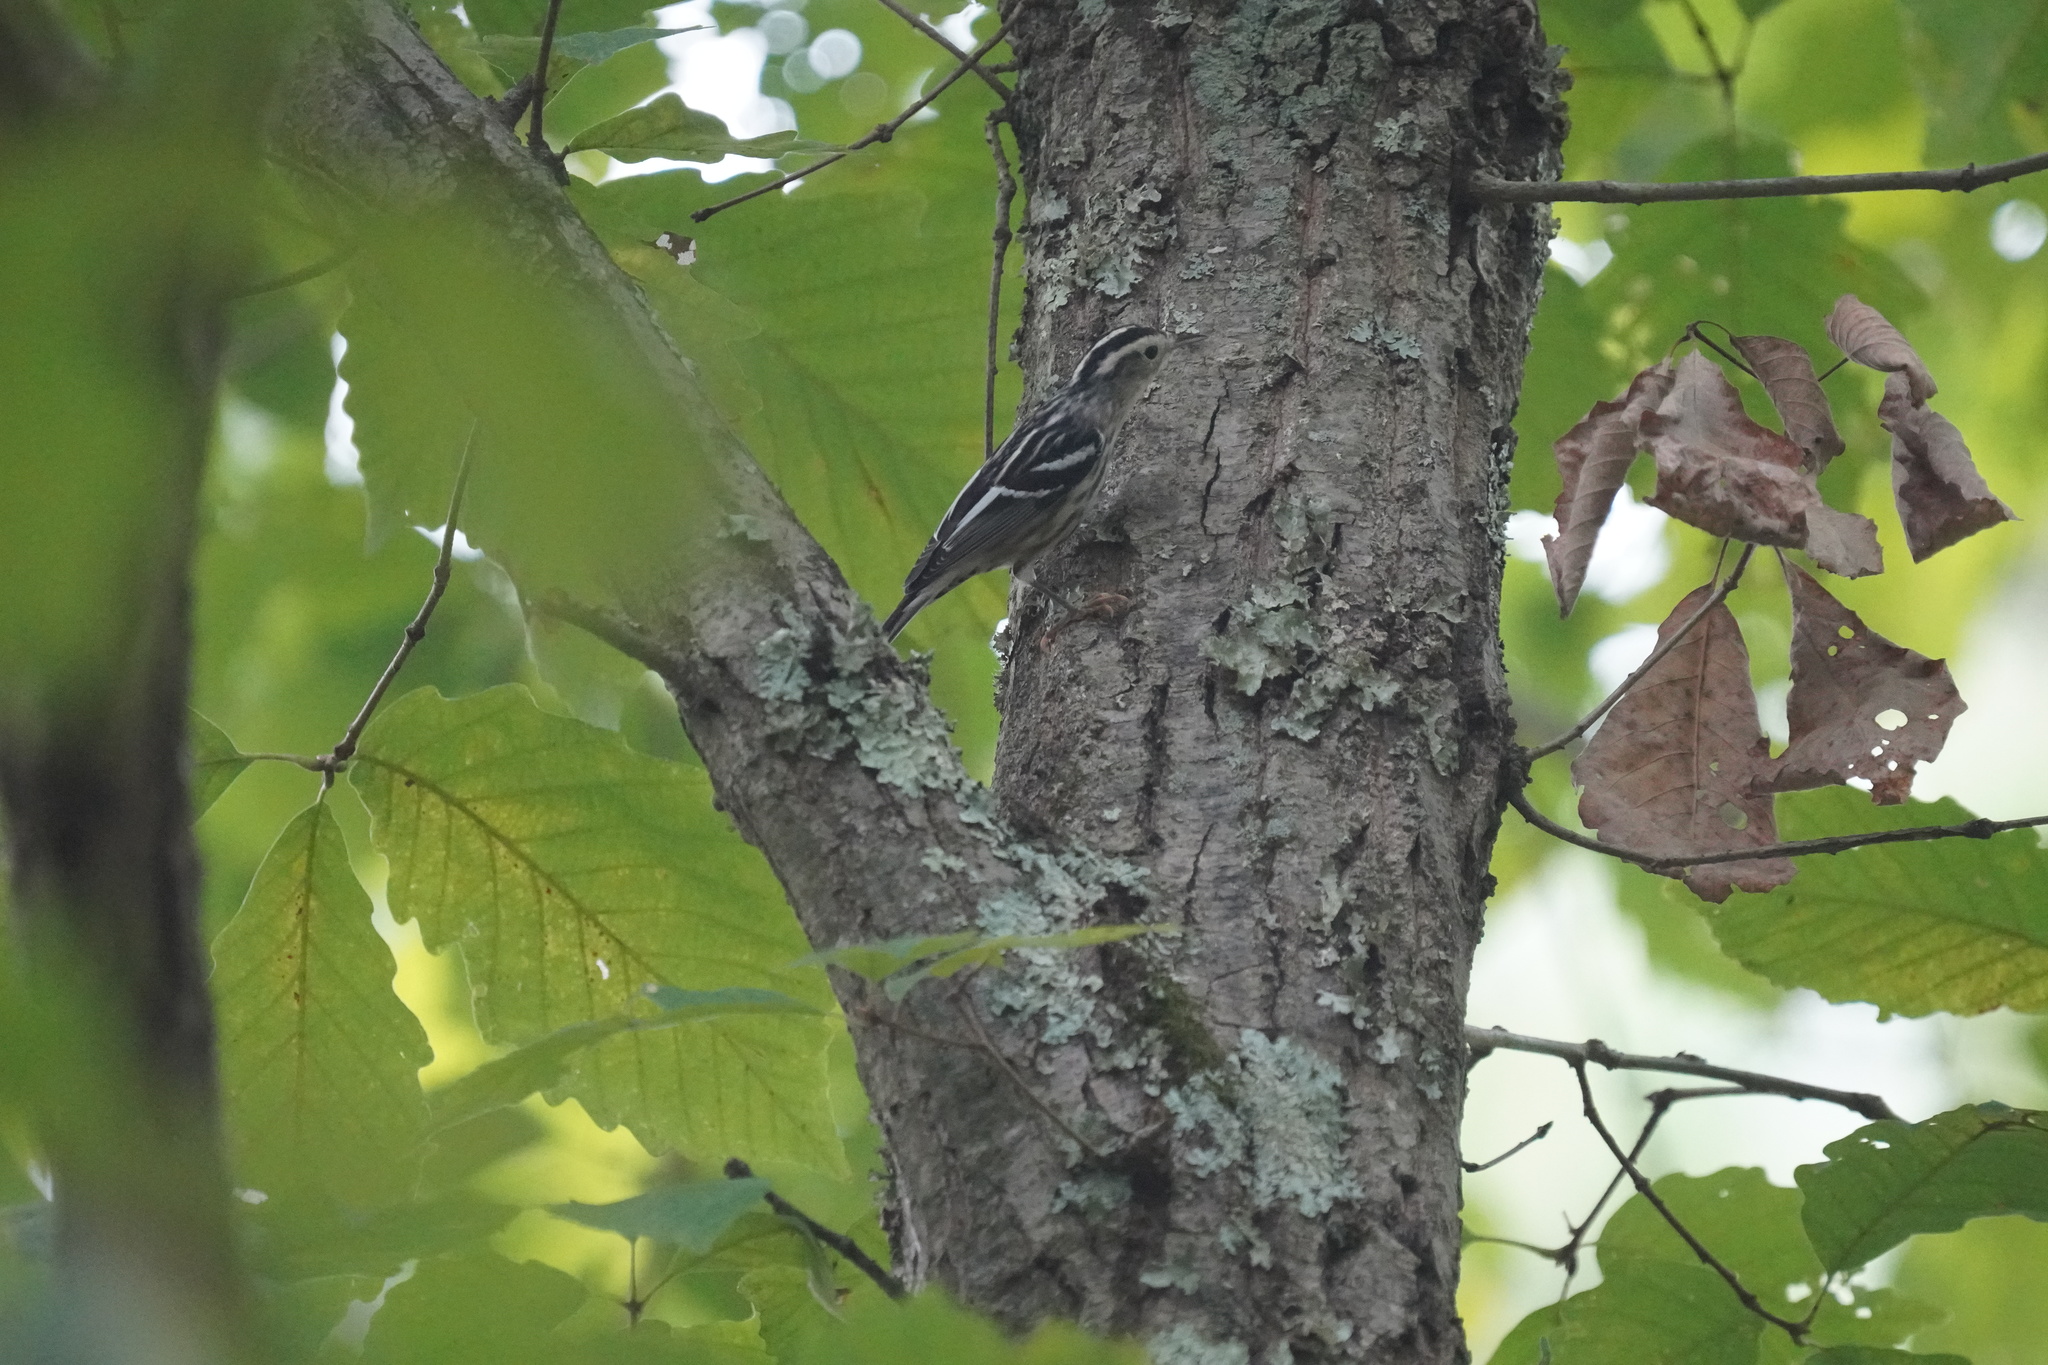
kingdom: Animalia
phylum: Chordata
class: Aves
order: Passeriformes
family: Parulidae
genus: Mniotilta
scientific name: Mniotilta varia
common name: Black-and-white warbler
